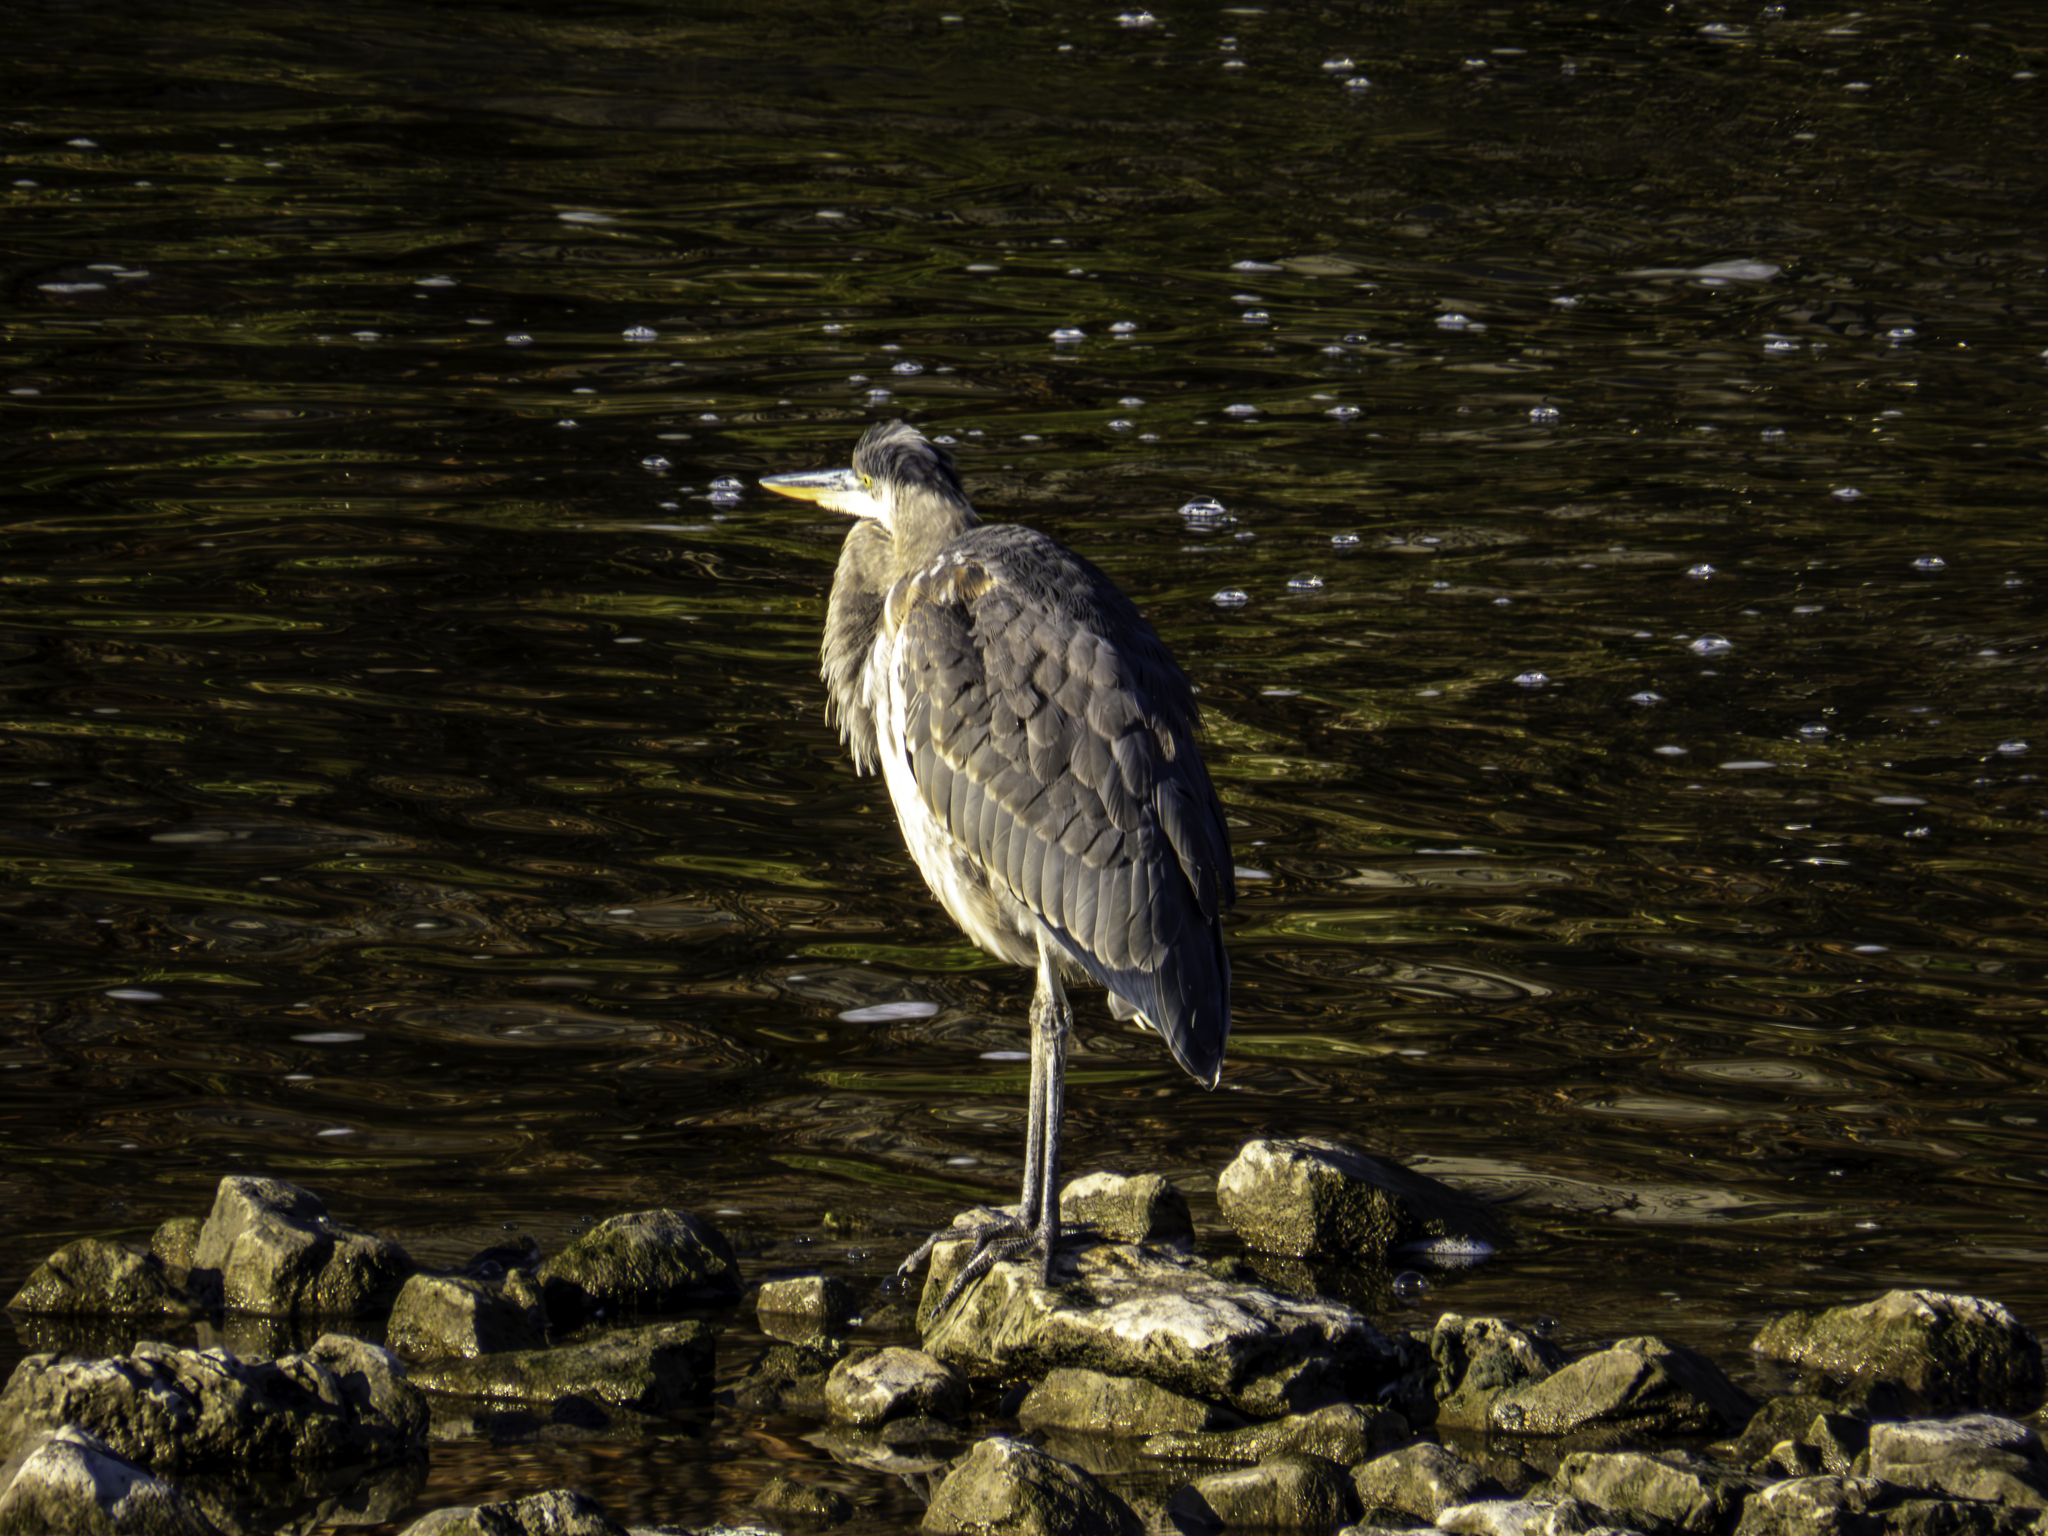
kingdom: Animalia
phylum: Chordata
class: Aves
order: Pelecaniformes
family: Ardeidae
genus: Ardea
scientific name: Ardea herodias
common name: Great blue heron
